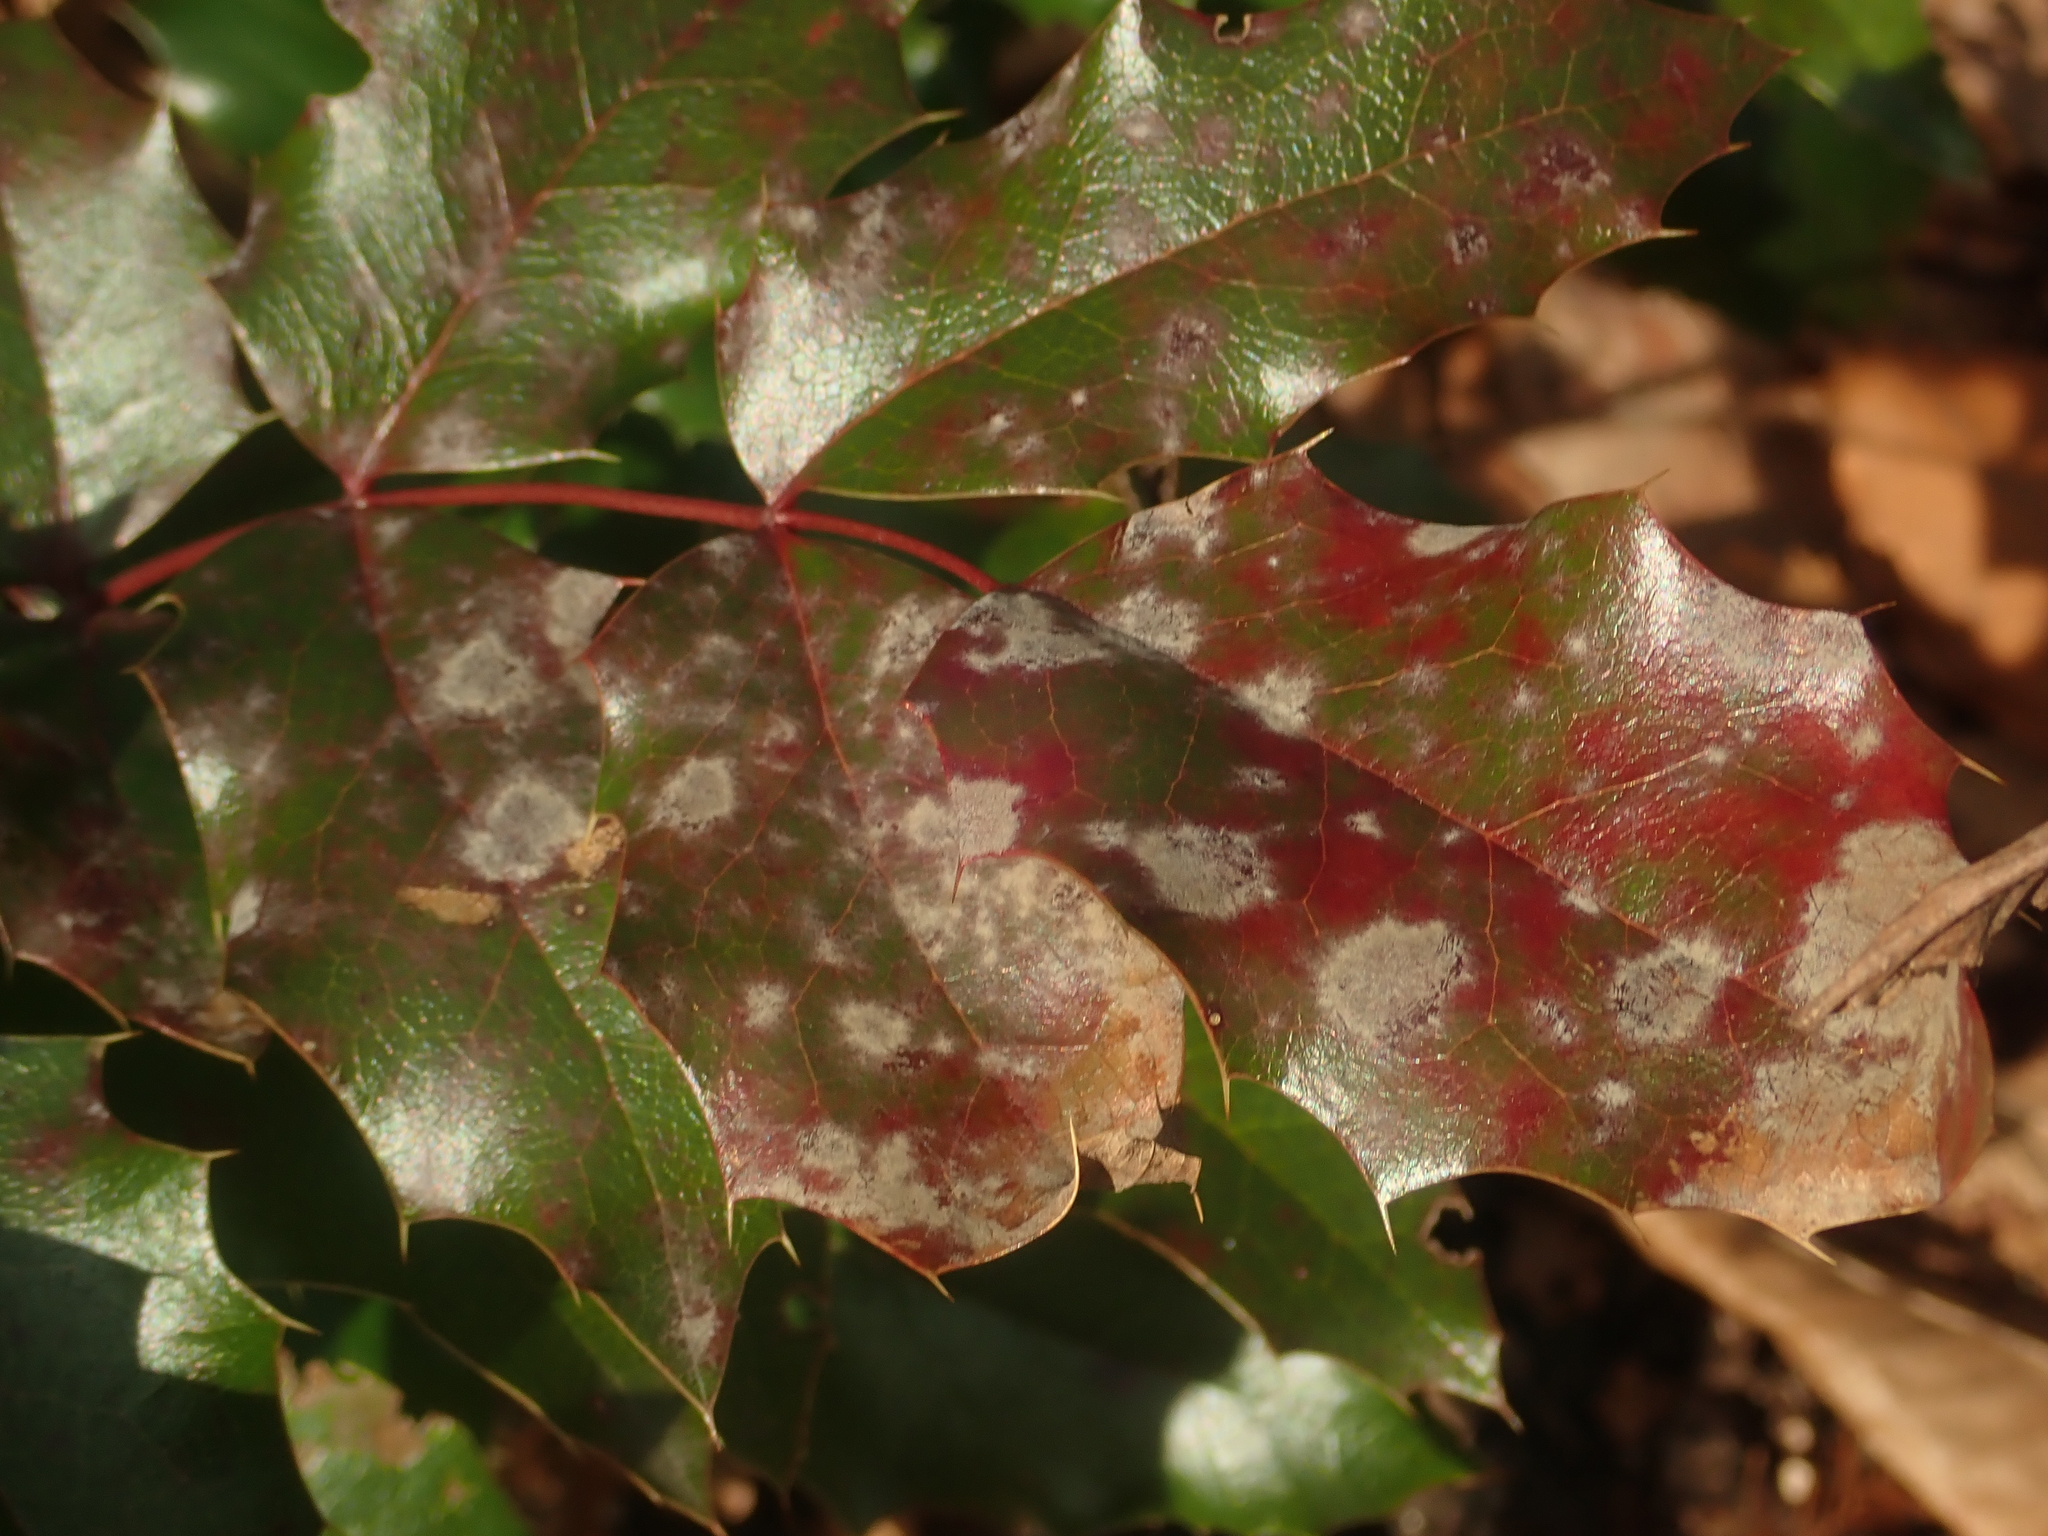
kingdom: Fungi
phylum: Ascomycota
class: Leotiomycetes
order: Helotiales
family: Erysiphaceae
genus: Erysiphe
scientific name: Erysiphe berberidis
